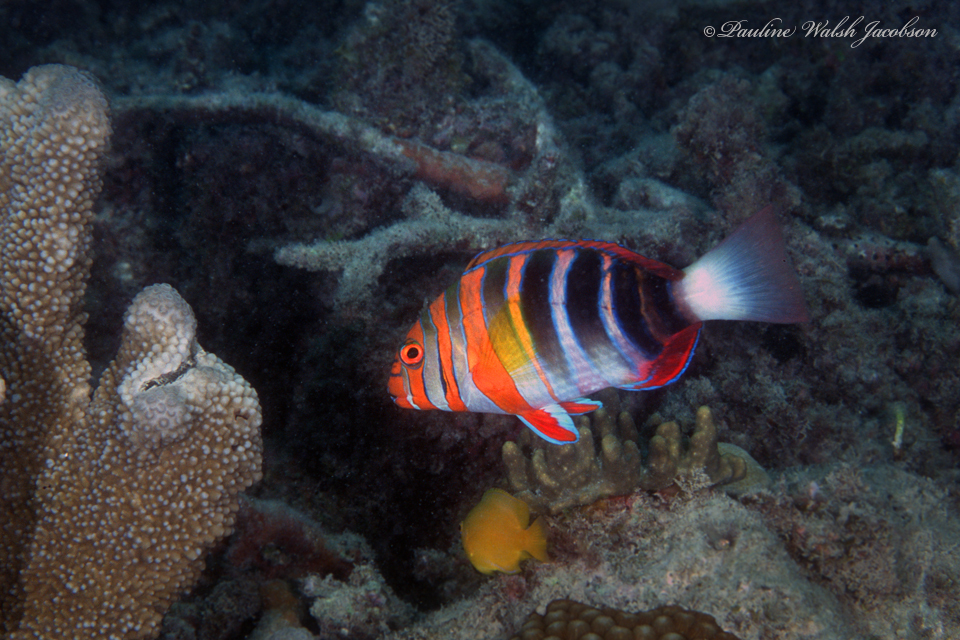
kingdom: Animalia
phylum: Chordata
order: Perciformes
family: Labridae
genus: Choerodon
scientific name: Choerodon fasciatus
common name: Harlequin tuskfish
